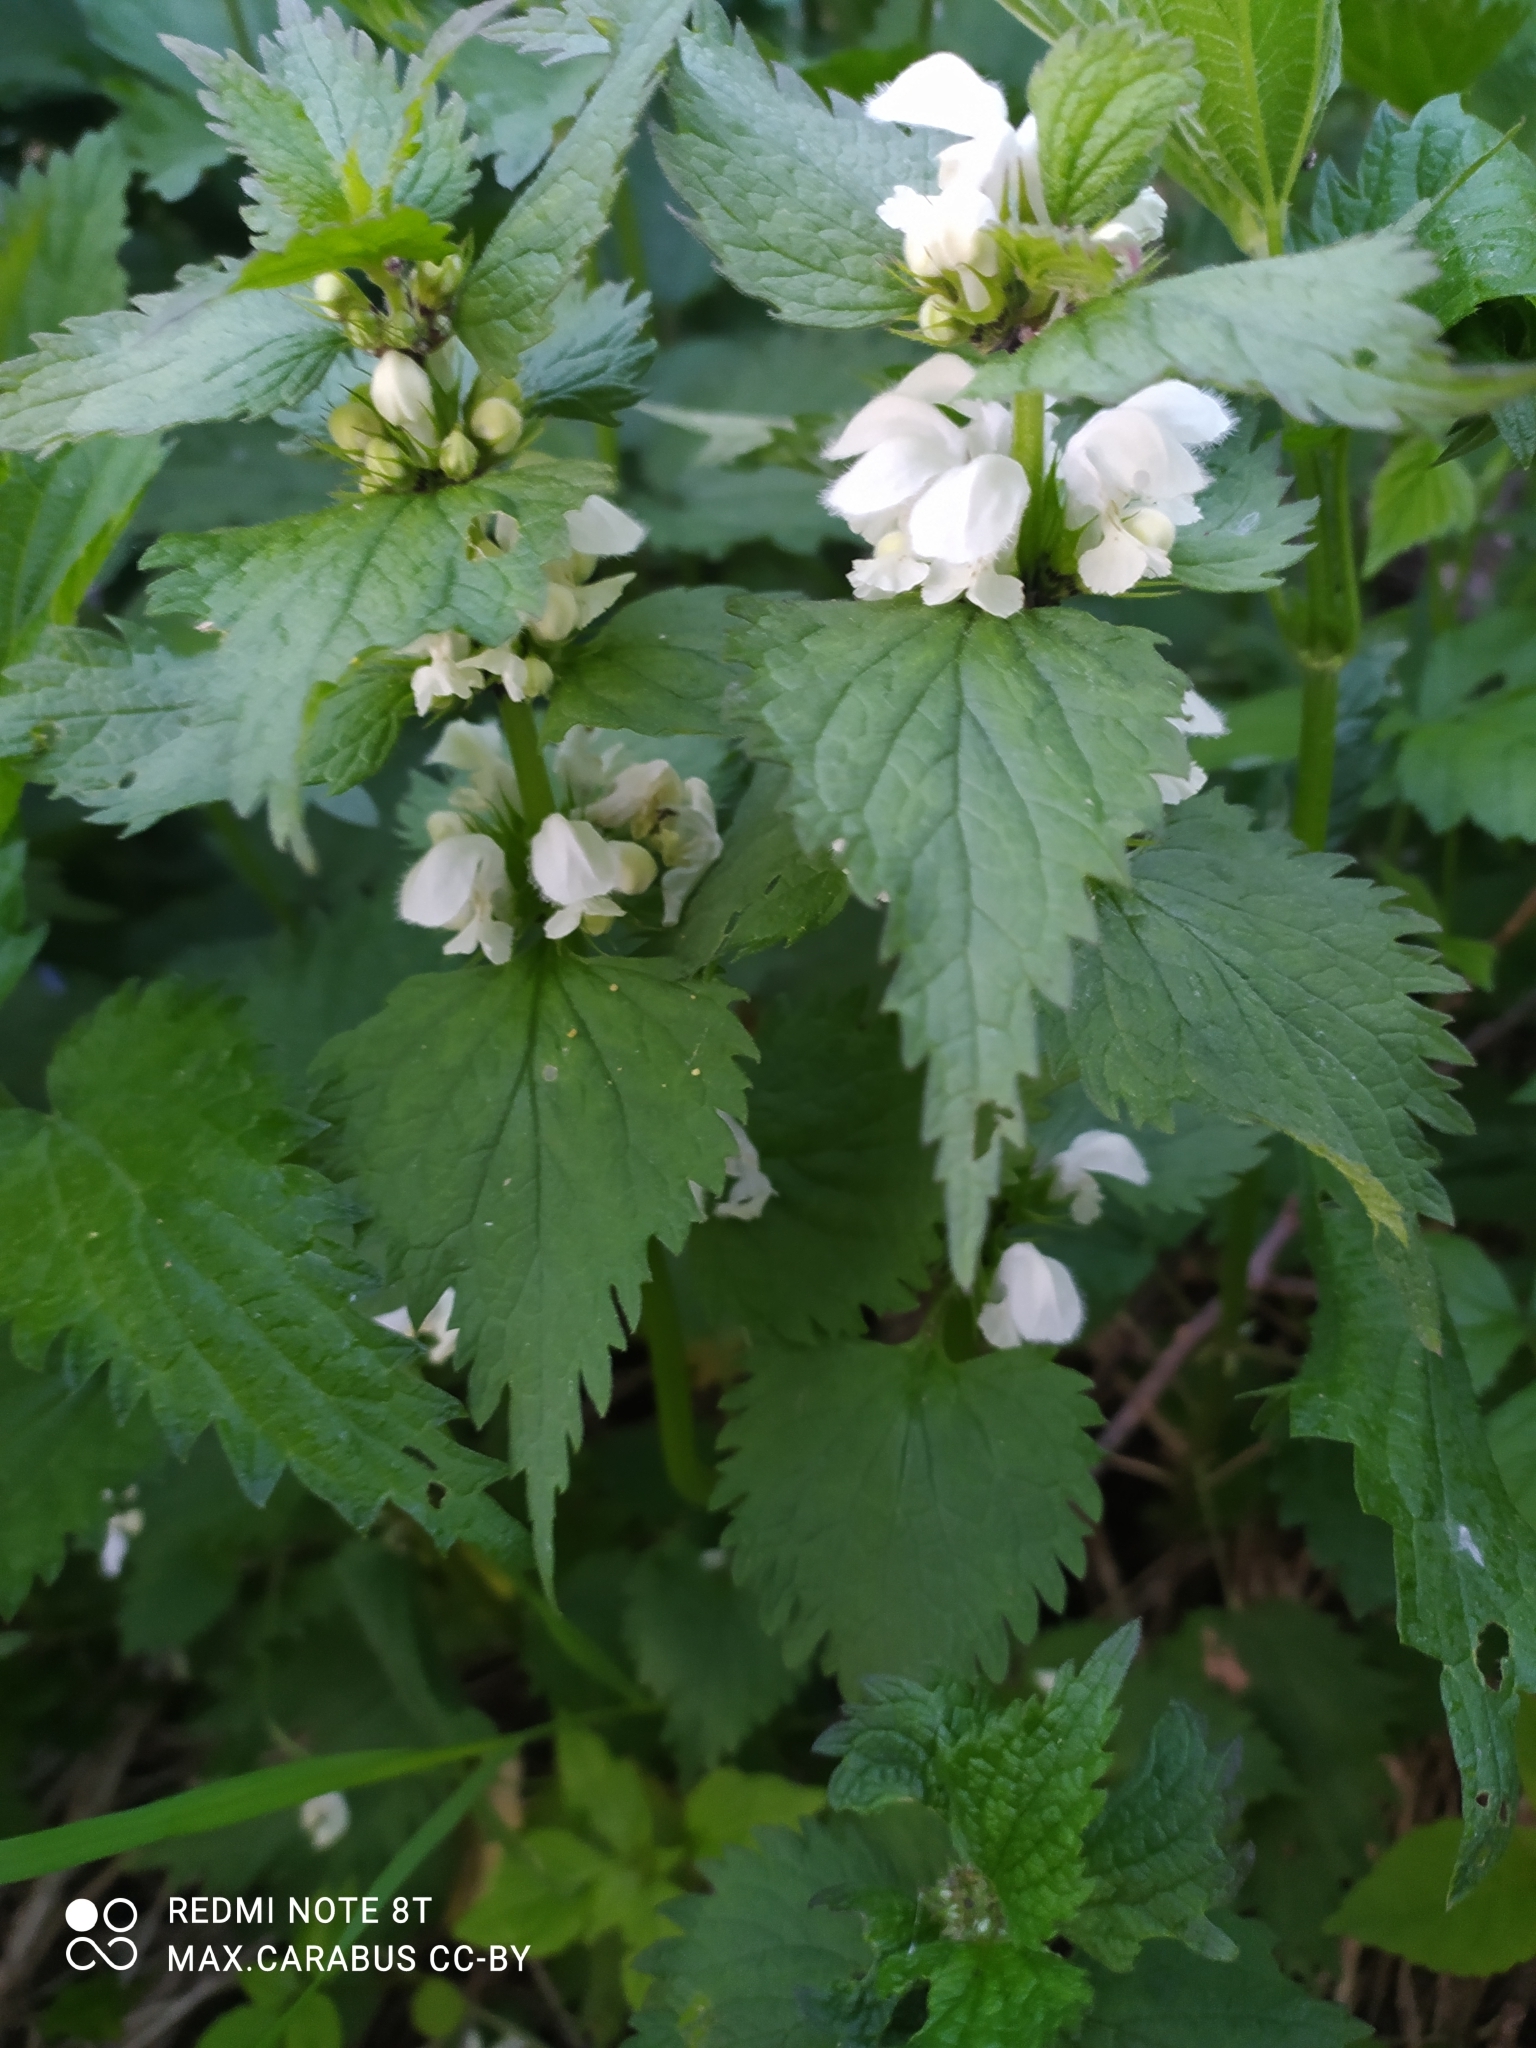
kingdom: Plantae
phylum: Tracheophyta
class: Magnoliopsida
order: Lamiales
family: Lamiaceae
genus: Lamium
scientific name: Lamium album
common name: White dead-nettle
